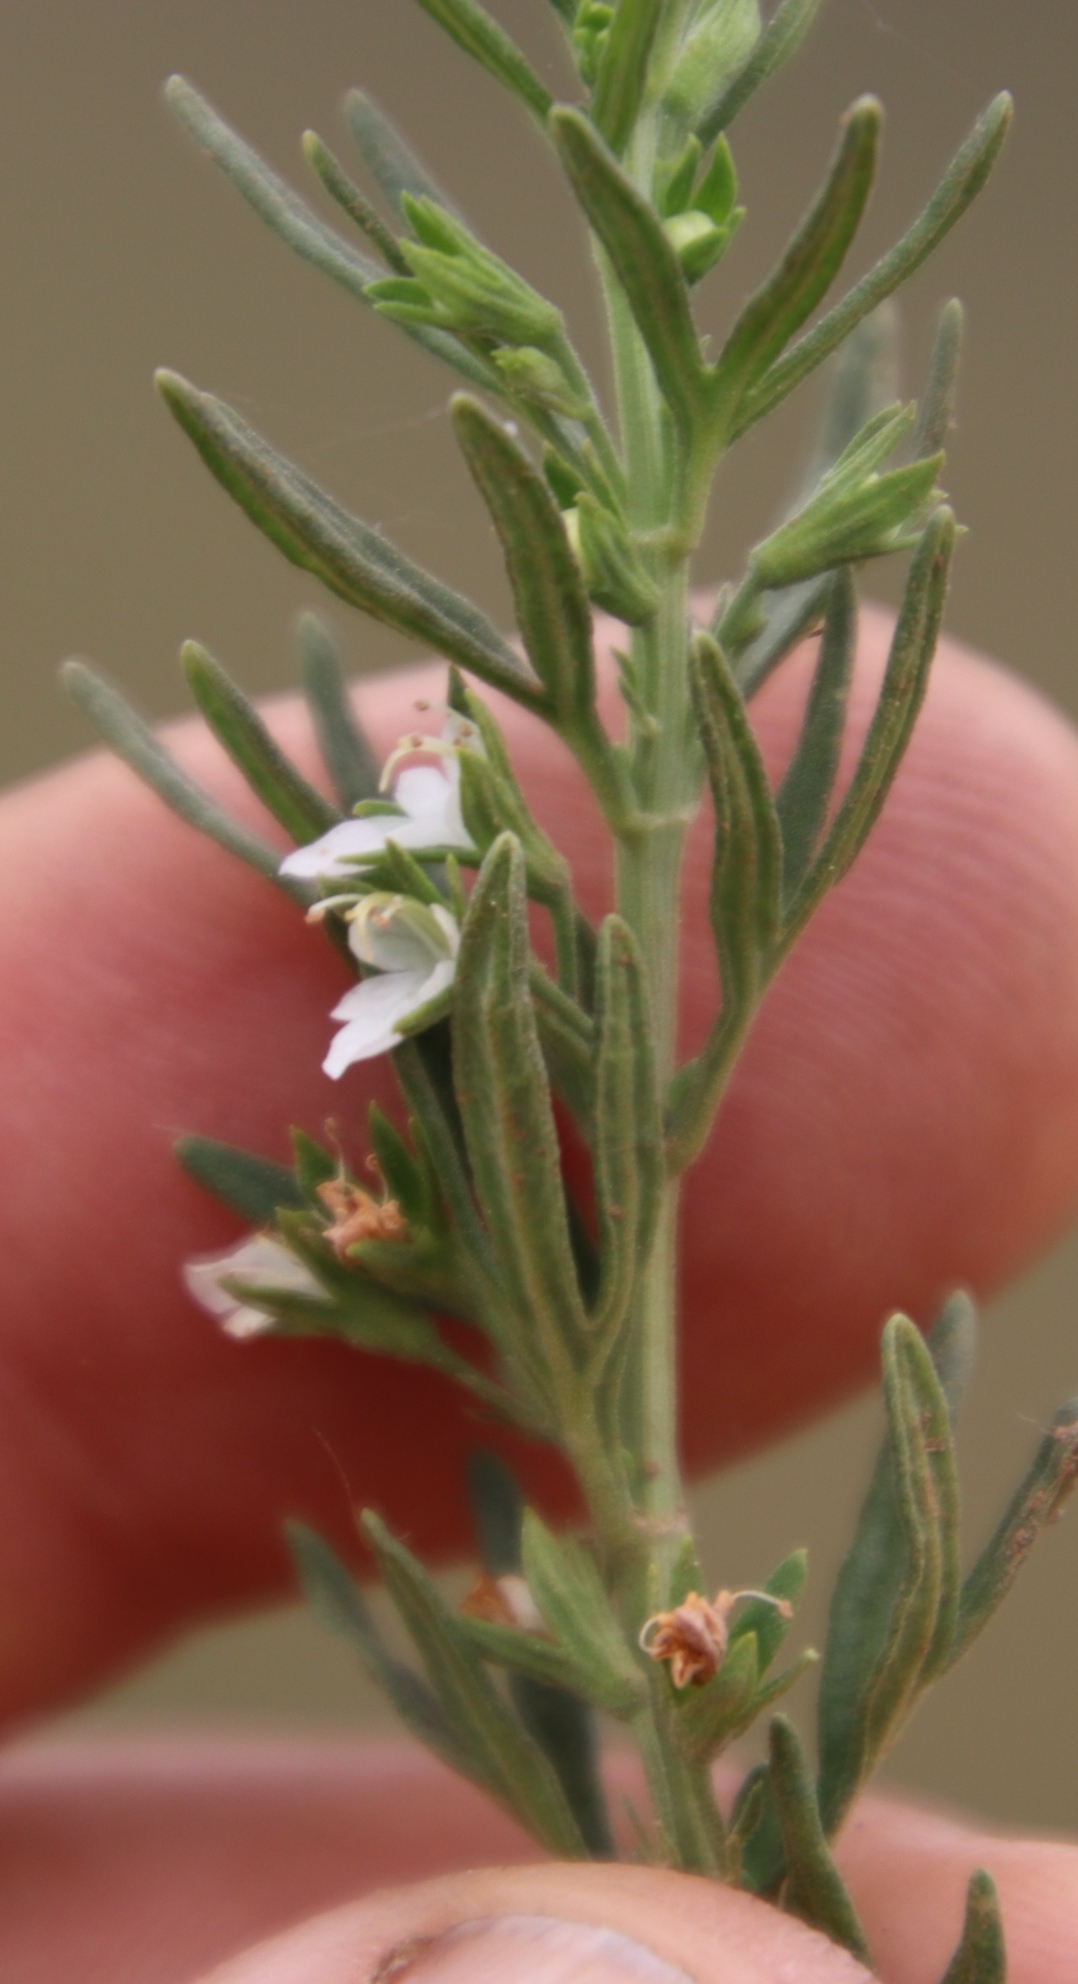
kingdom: Plantae
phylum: Tracheophyta
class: Magnoliopsida
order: Lamiales
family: Lamiaceae
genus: Teucrium
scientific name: Teucrium africanum
